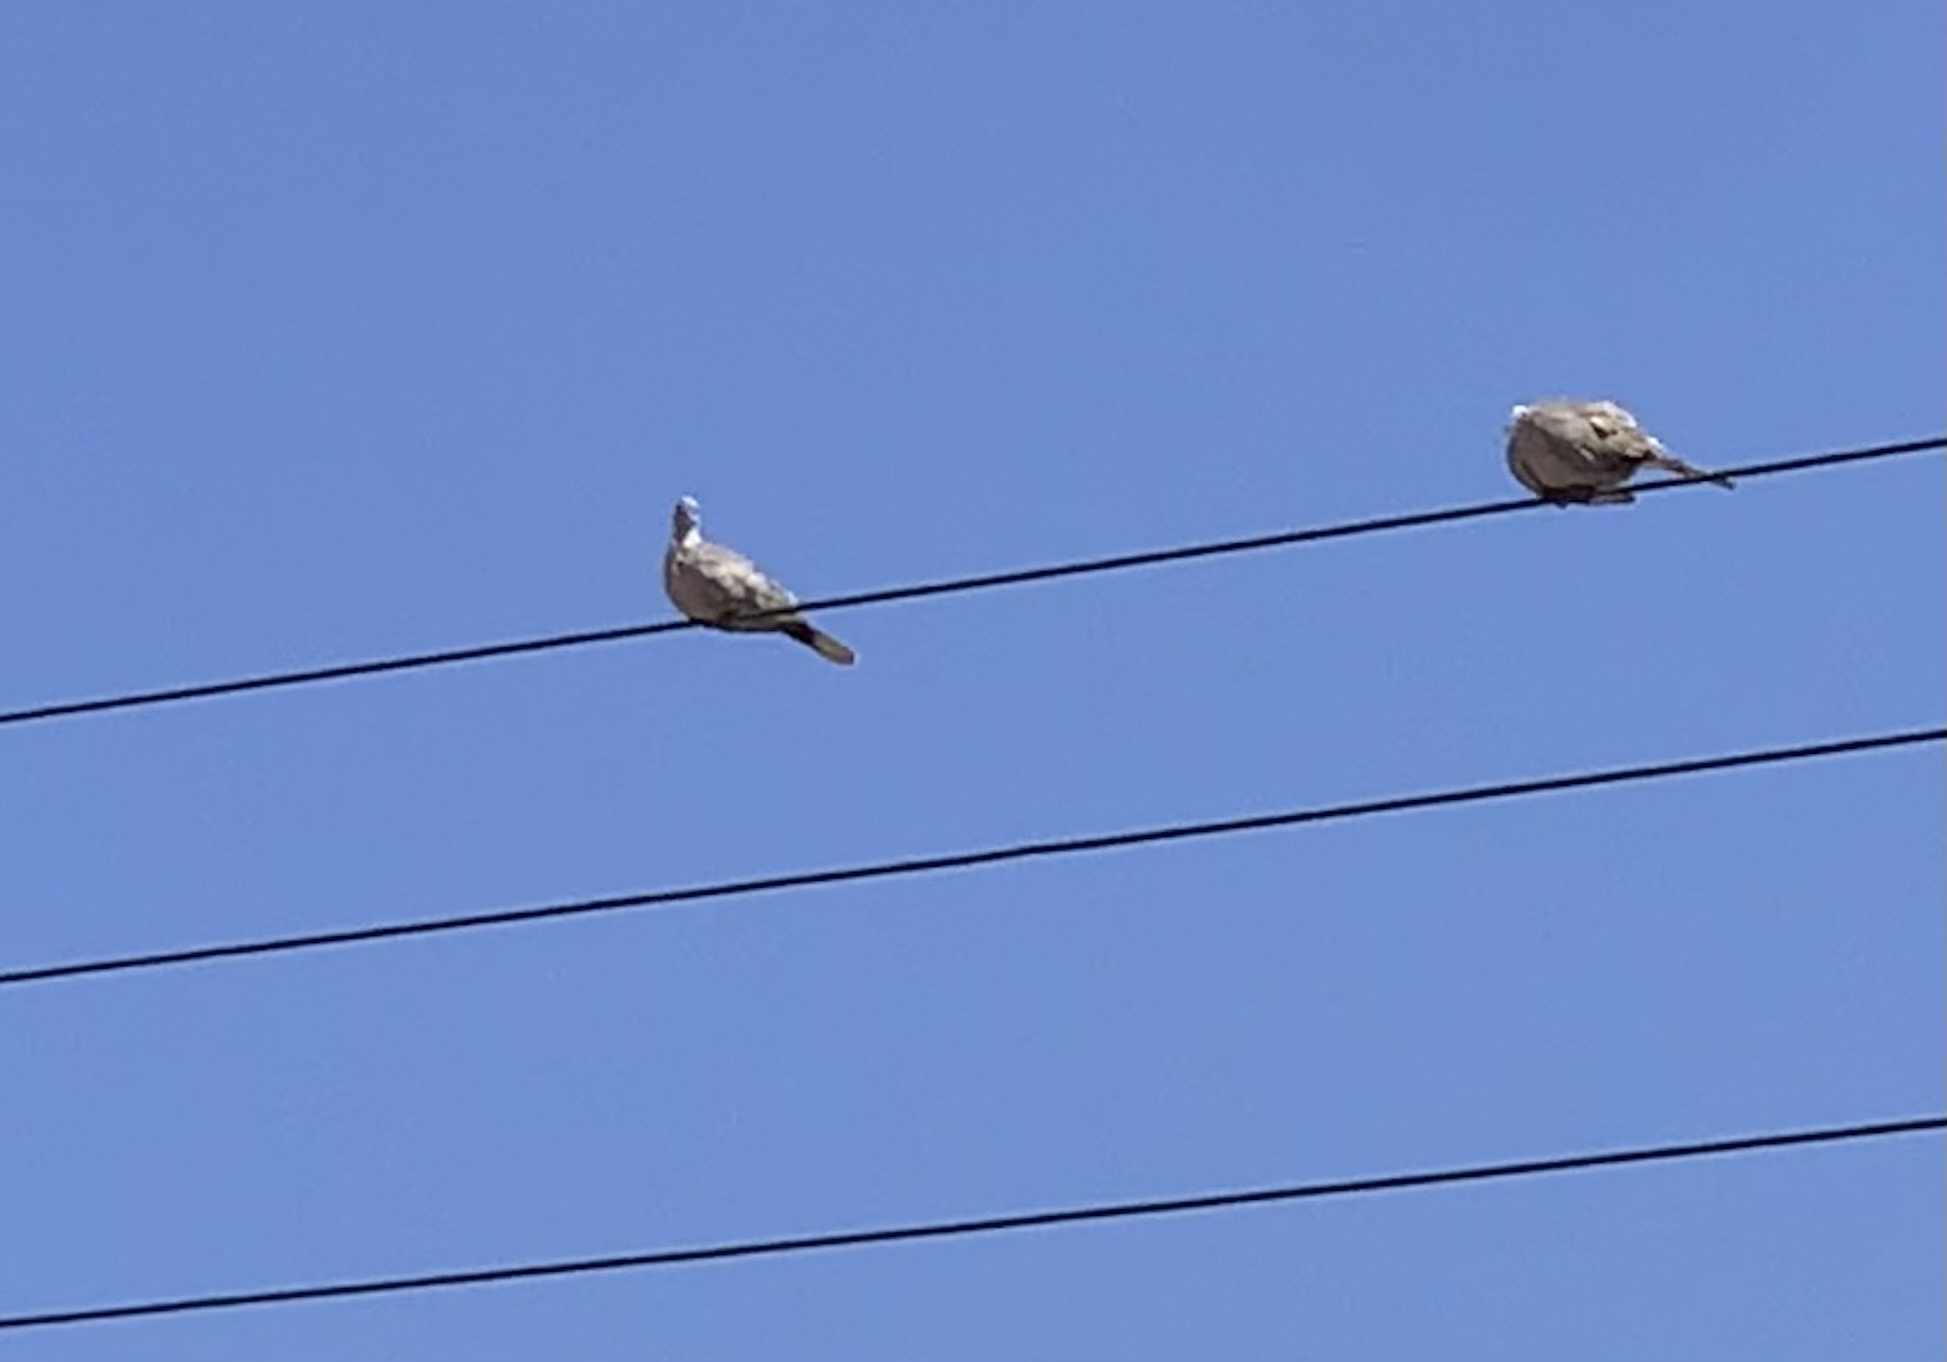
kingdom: Animalia
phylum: Chordata
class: Aves
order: Columbiformes
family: Columbidae
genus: Streptopelia
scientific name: Streptopelia decaocto
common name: Eurasian collared dove
